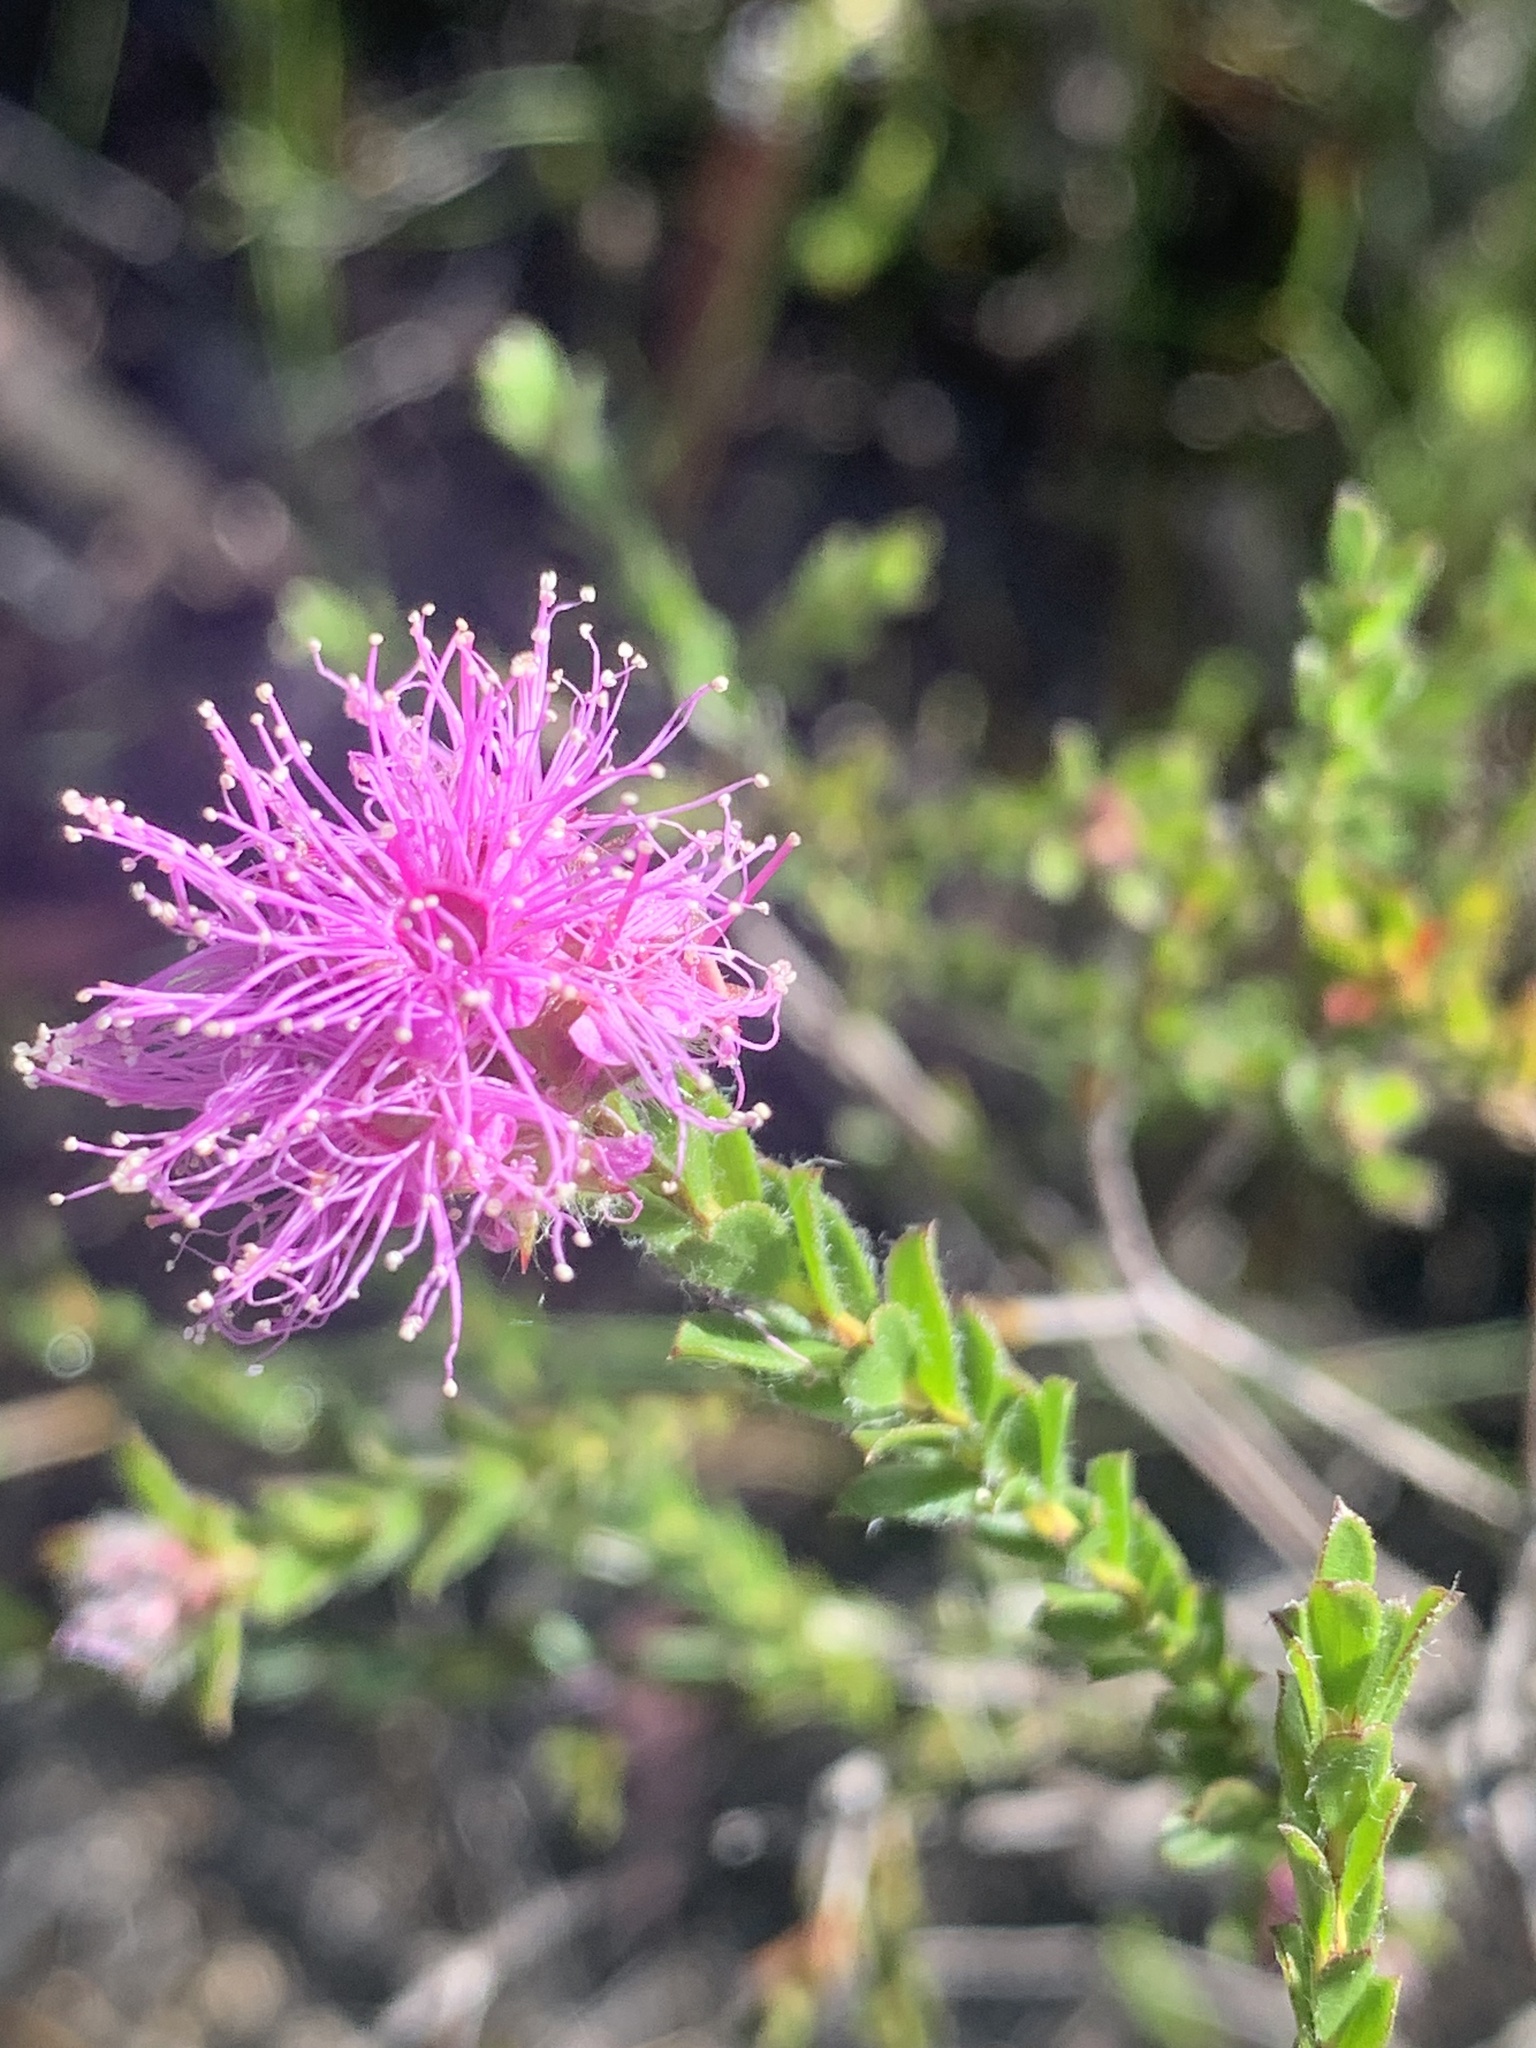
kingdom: Plantae
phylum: Tracheophyta
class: Magnoliopsida
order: Myrtales
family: Myrtaceae
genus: Kunzea
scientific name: Kunzea capitata
